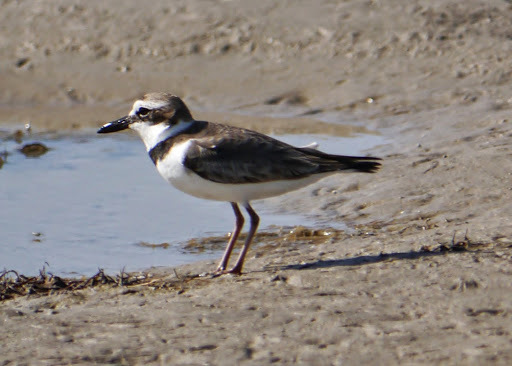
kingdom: Animalia
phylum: Chordata
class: Aves
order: Charadriiformes
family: Charadriidae
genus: Anarhynchus
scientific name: Anarhynchus
